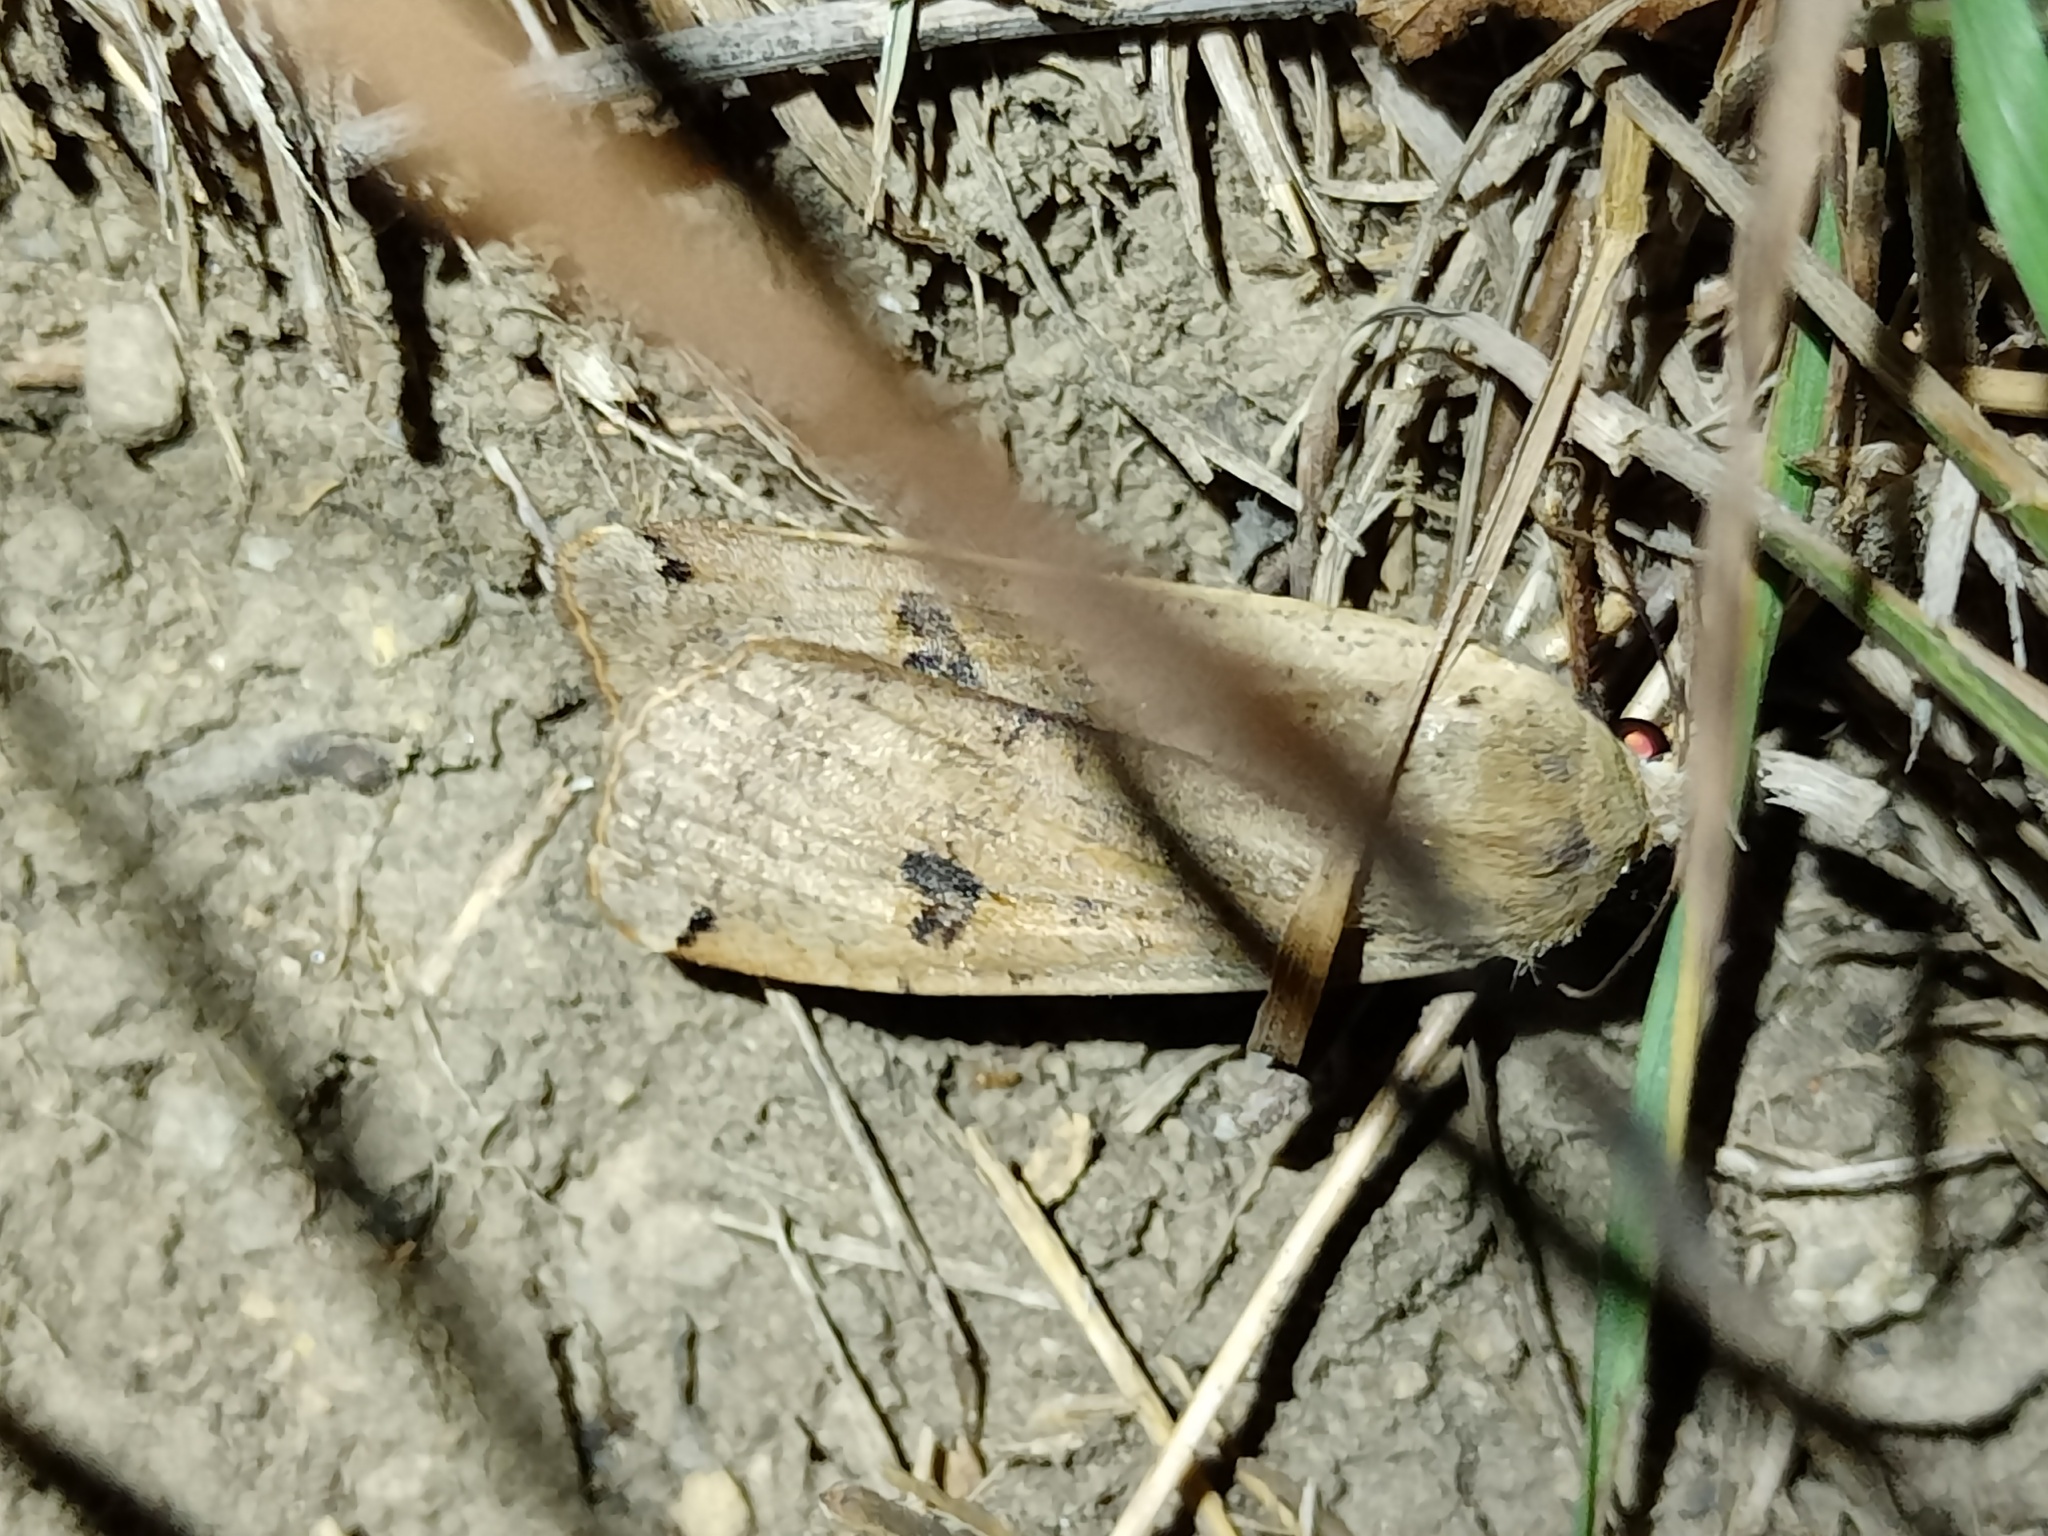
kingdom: Animalia
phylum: Arthropoda
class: Insecta
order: Lepidoptera
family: Noctuidae
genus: Noctua
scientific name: Noctua pronuba
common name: Large yellow underwing
